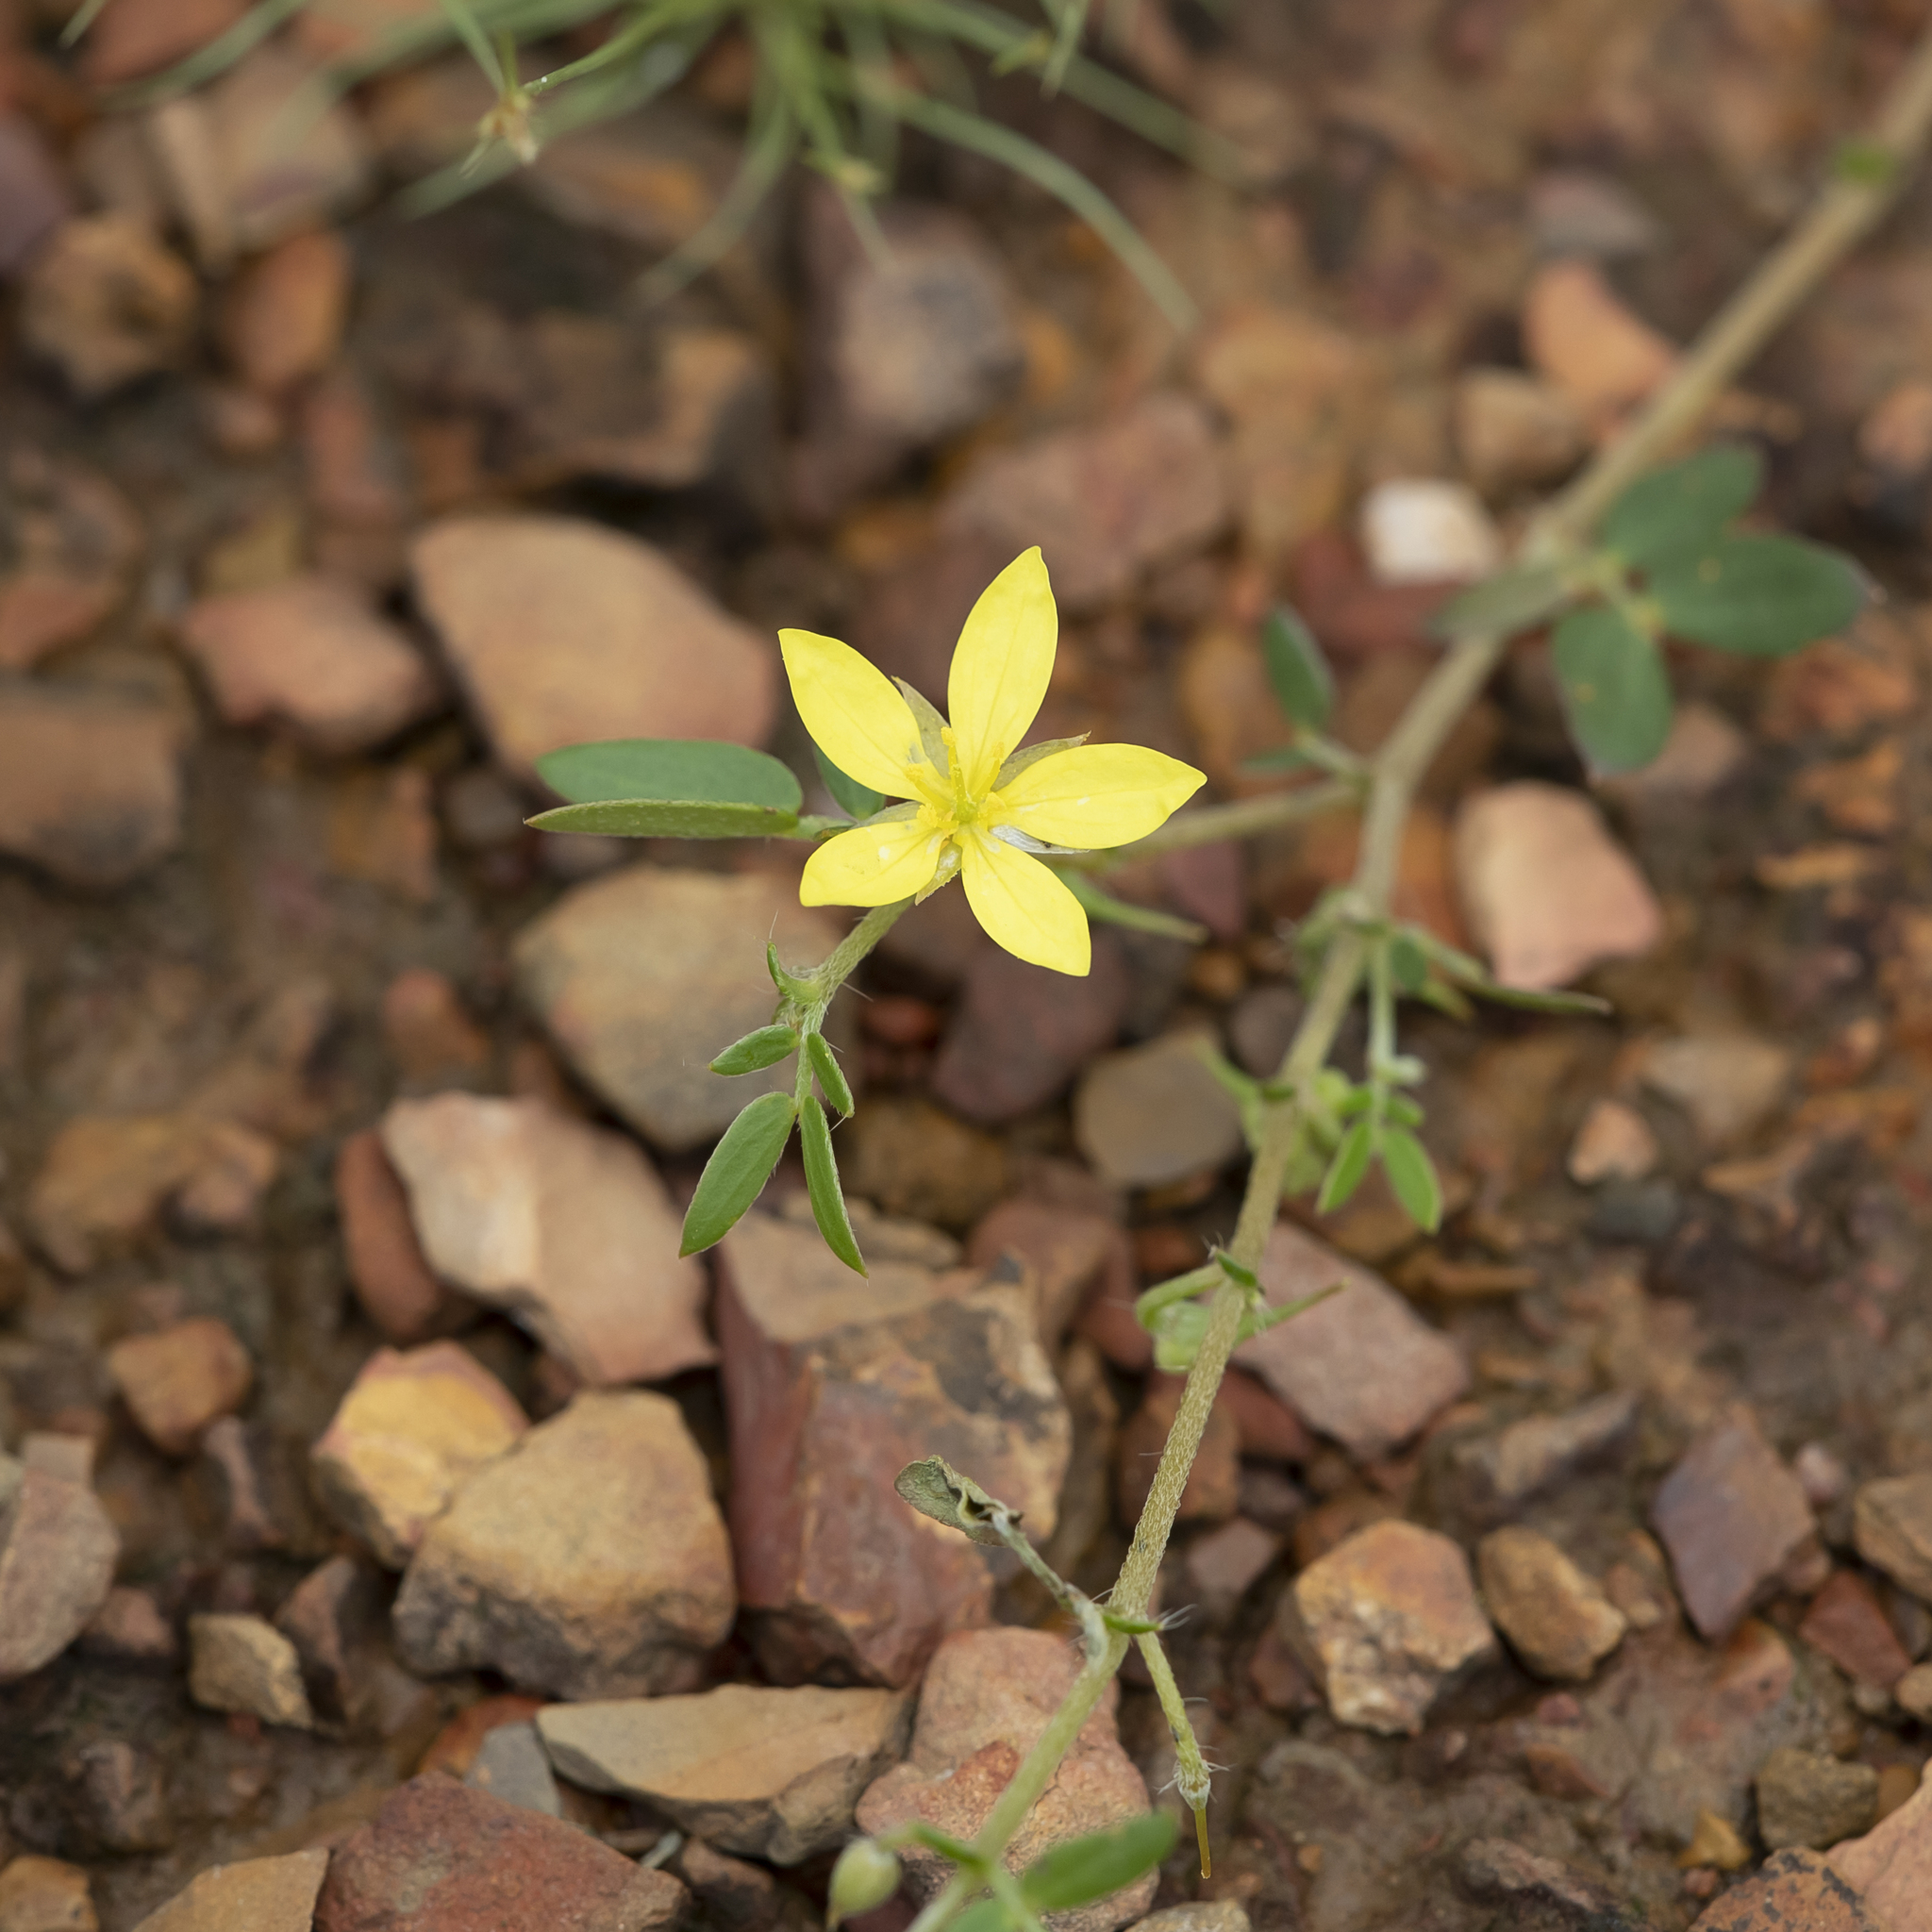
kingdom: Plantae
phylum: Tracheophyta
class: Magnoliopsida
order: Zygophyllales
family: Zygophyllaceae
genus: Tribulopis
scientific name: Tribulopis pentandra
